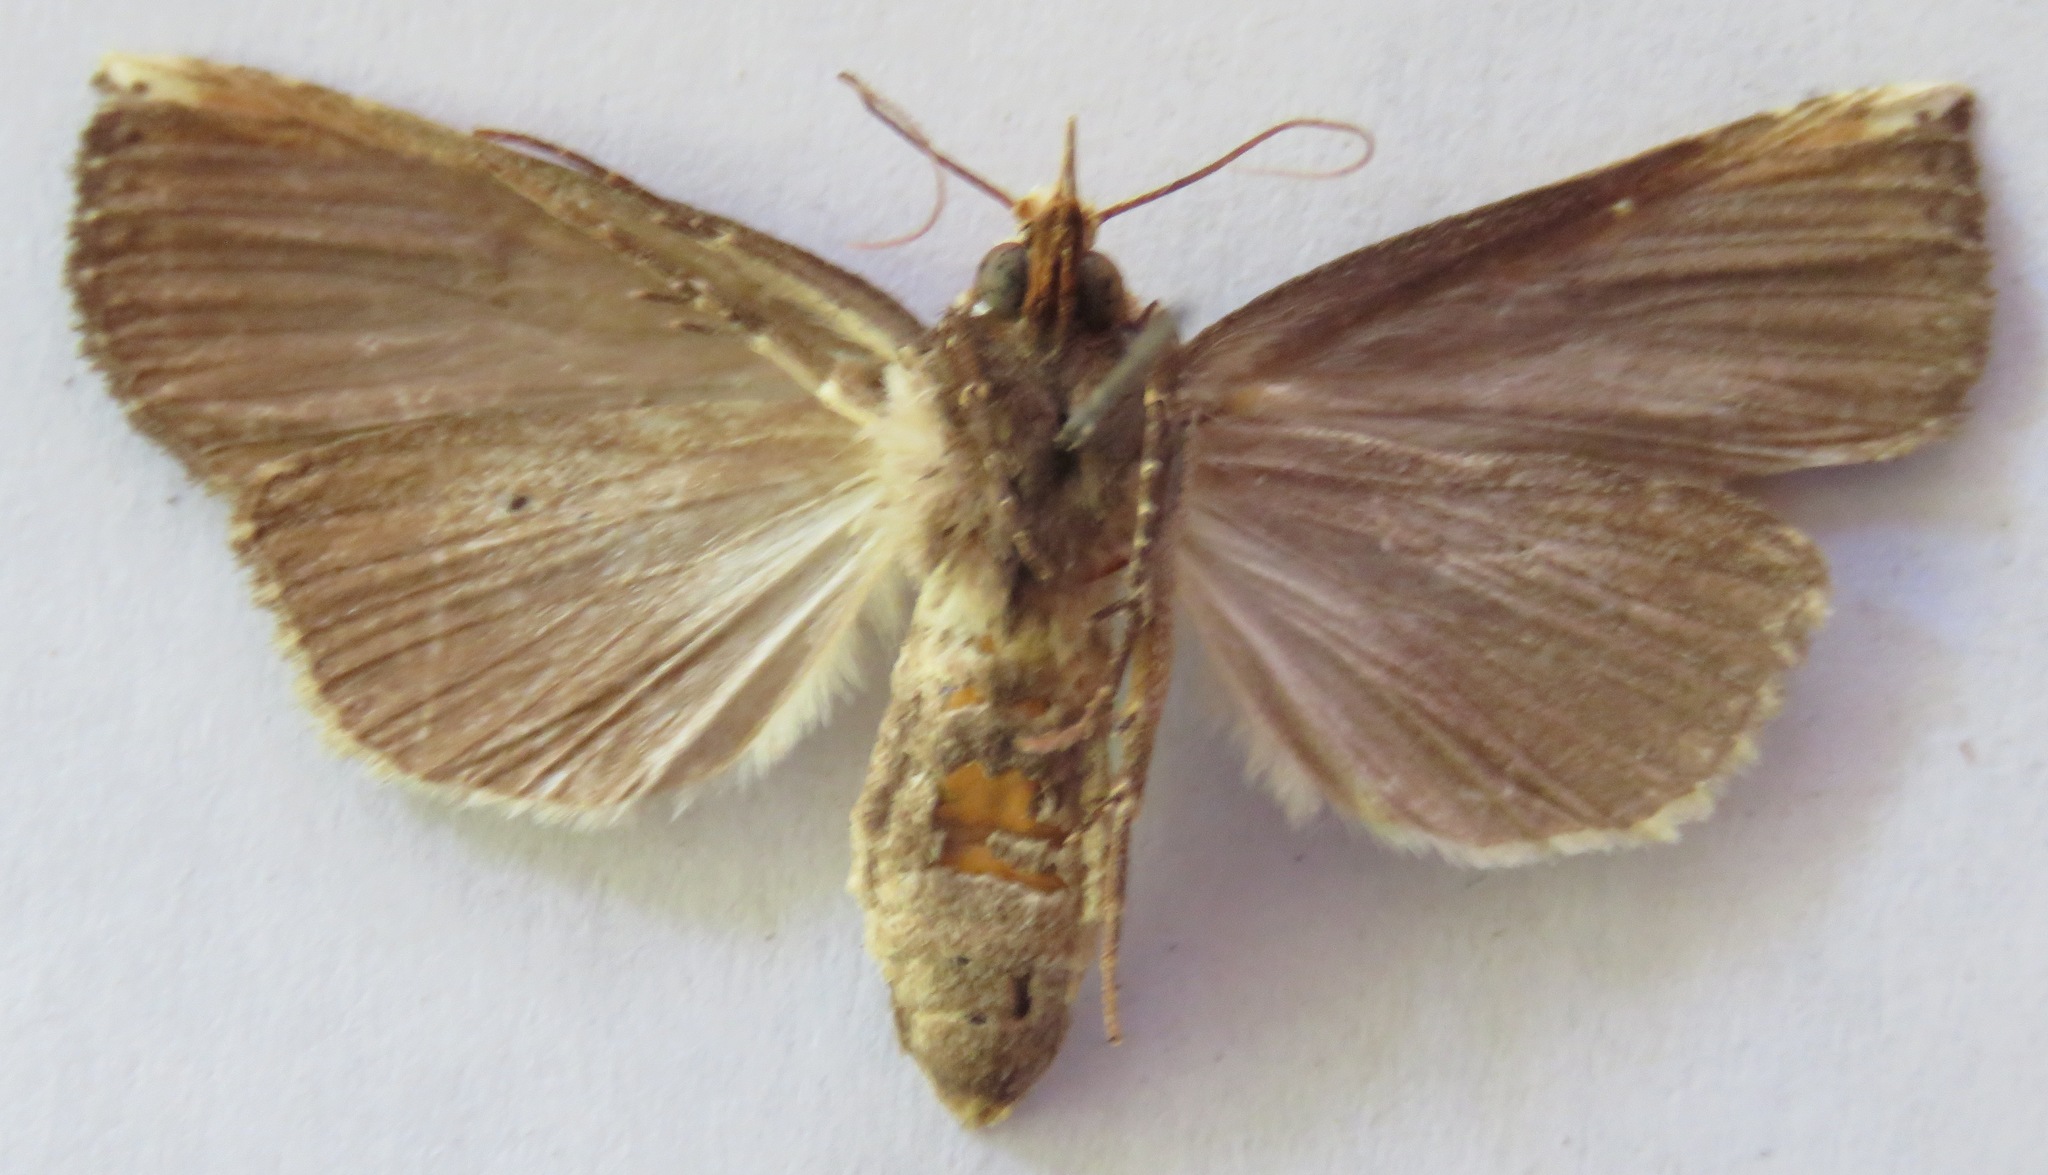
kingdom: Animalia
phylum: Arthropoda
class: Insecta
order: Lepidoptera
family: Notodontidae
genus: Elasmia
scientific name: Elasmia schausi
